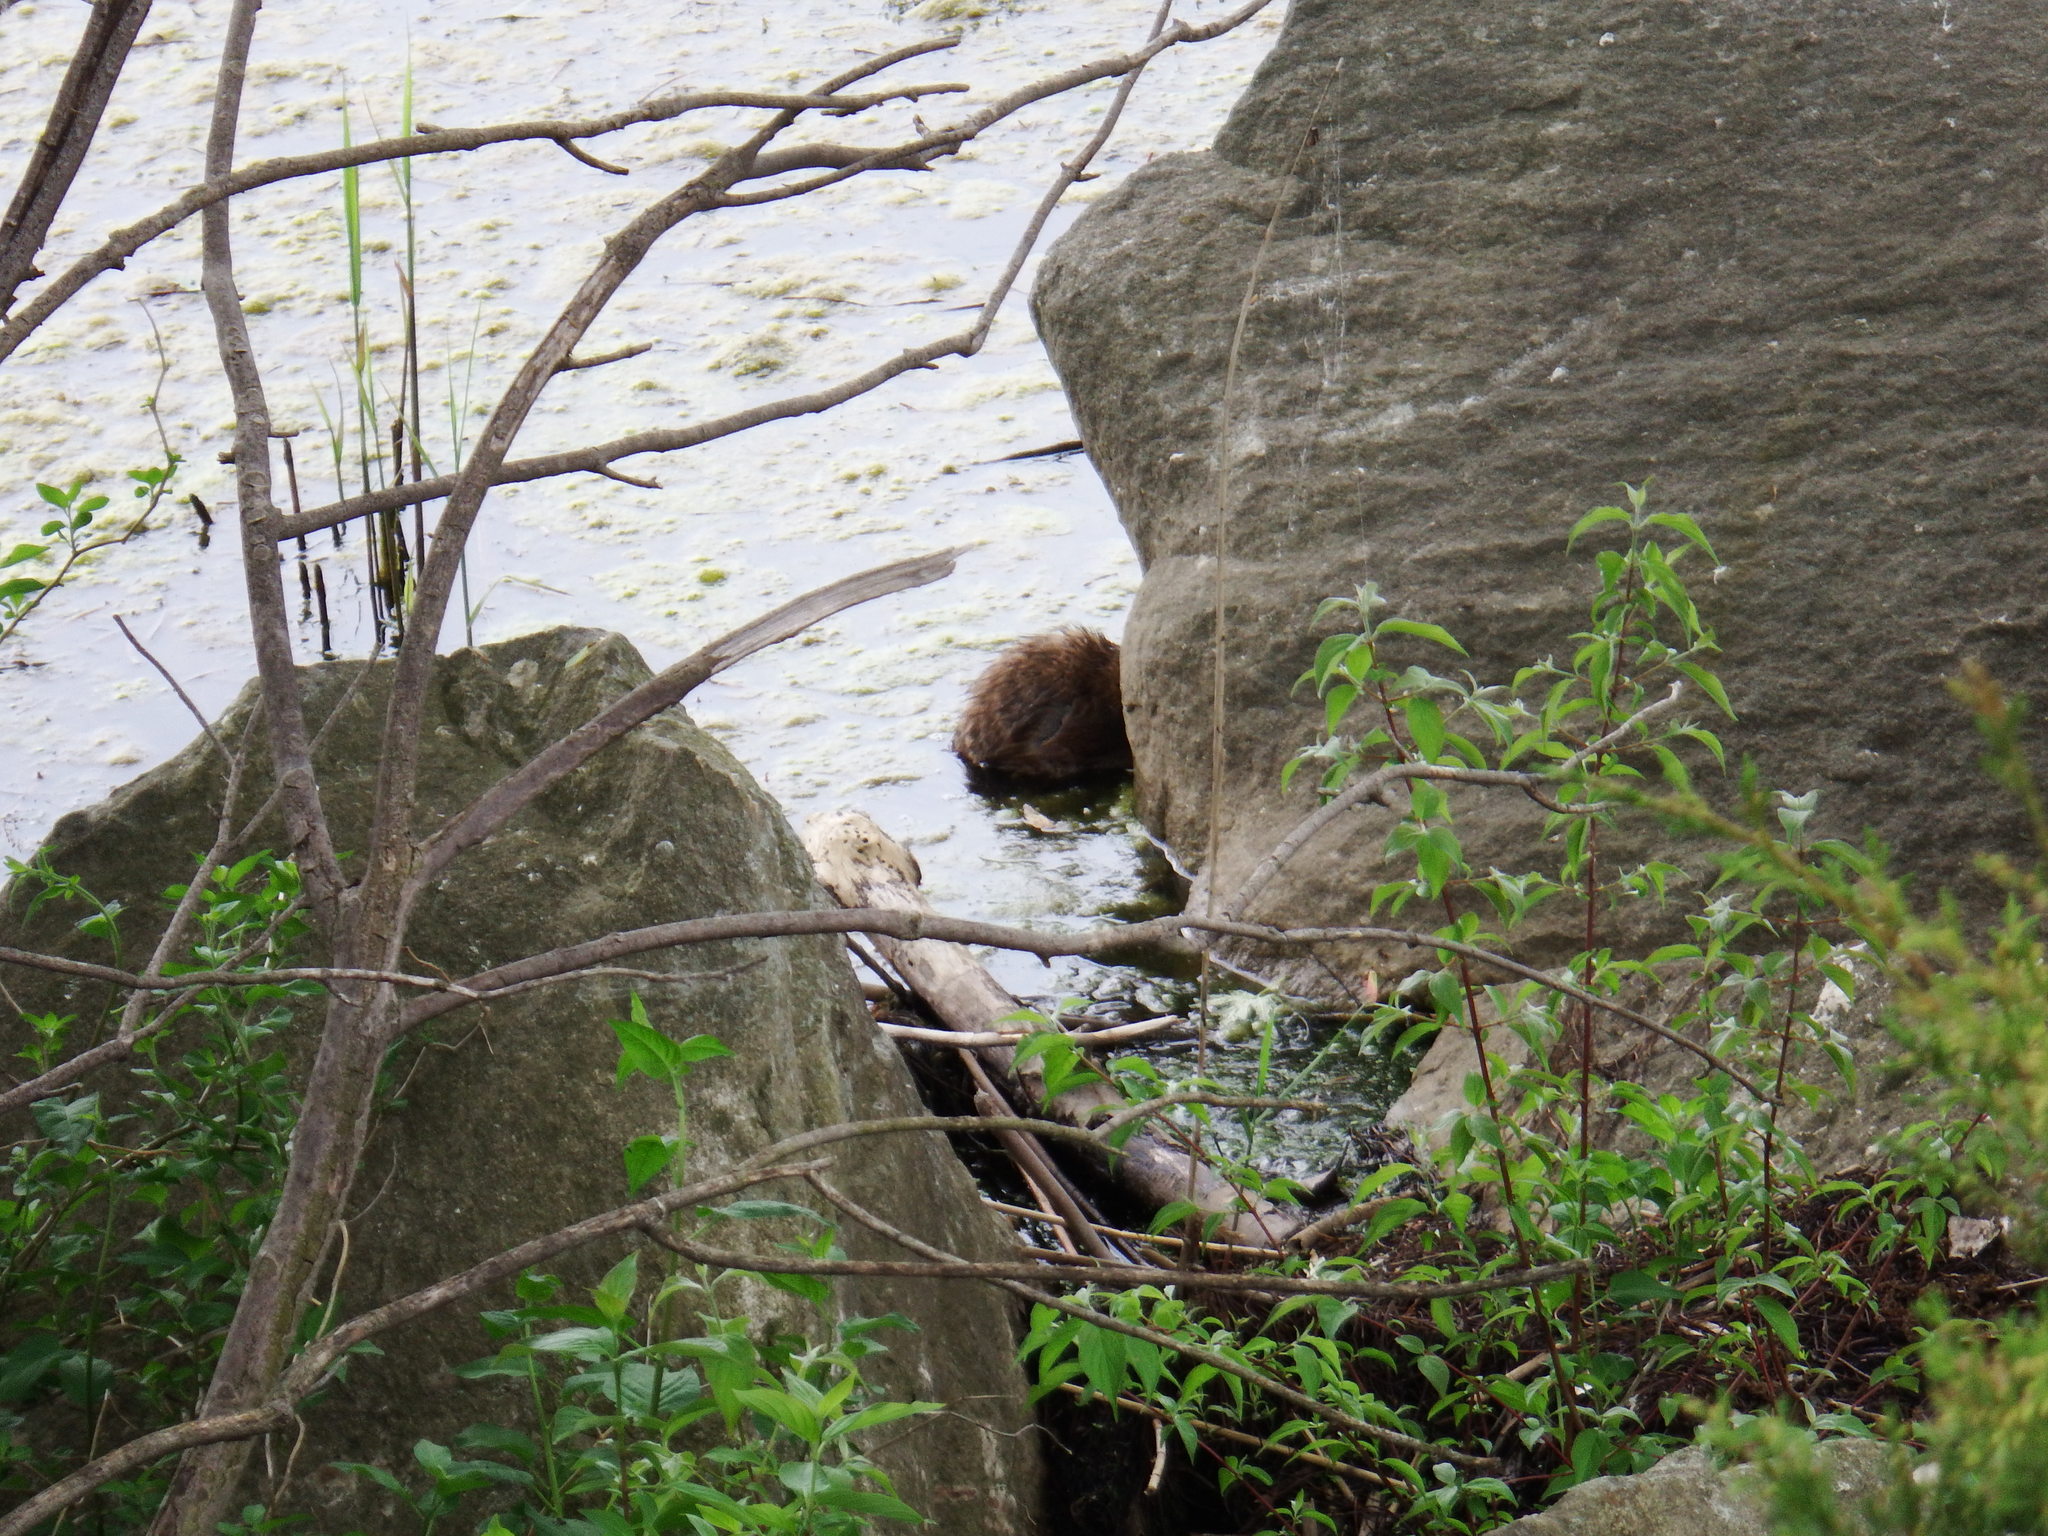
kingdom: Animalia
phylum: Chordata
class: Mammalia
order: Rodentia
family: Cricetidae
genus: Ondatra
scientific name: Ondatra zibethicus
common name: Muskrat
